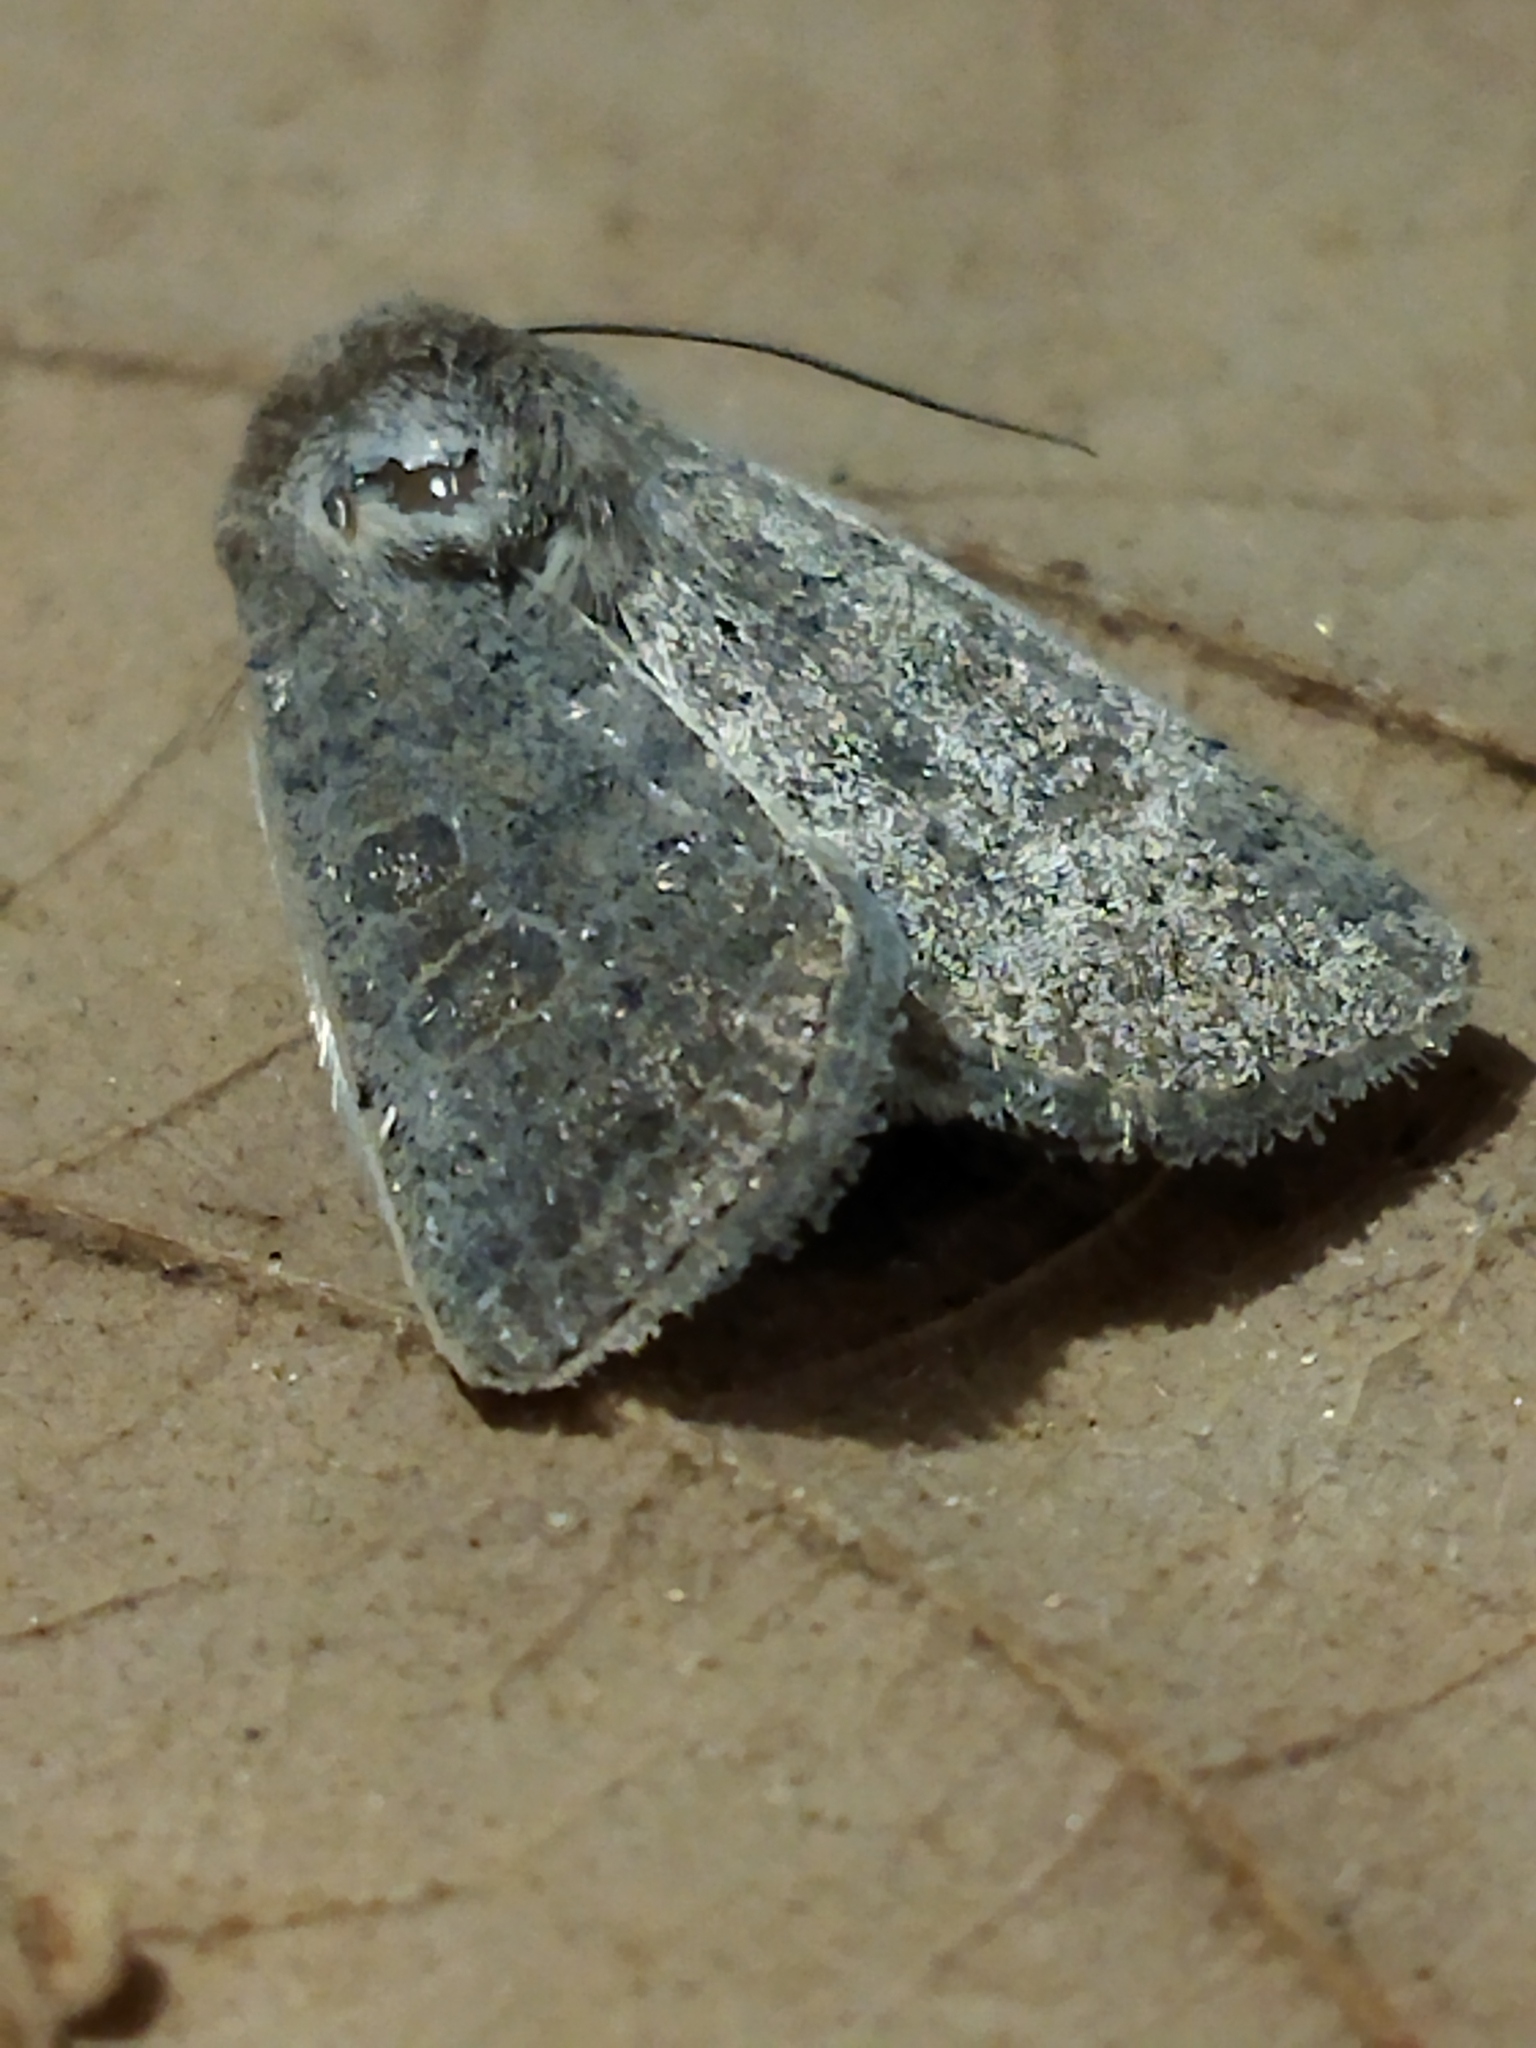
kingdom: Animalia
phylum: Arthropoda
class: Insecta
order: Lepidoptera
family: Noctuidae
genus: Hoplodrina
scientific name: Hoplodrina ambigua
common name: Vine's rustic
